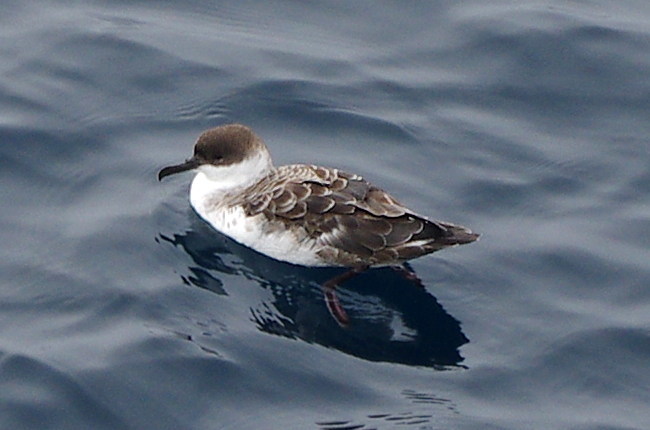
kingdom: Animalia
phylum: Chordata
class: Aves
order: Procellariiformes
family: Procellariidae
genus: Puffinus
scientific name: Puffinus gravis
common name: Great shearwater
